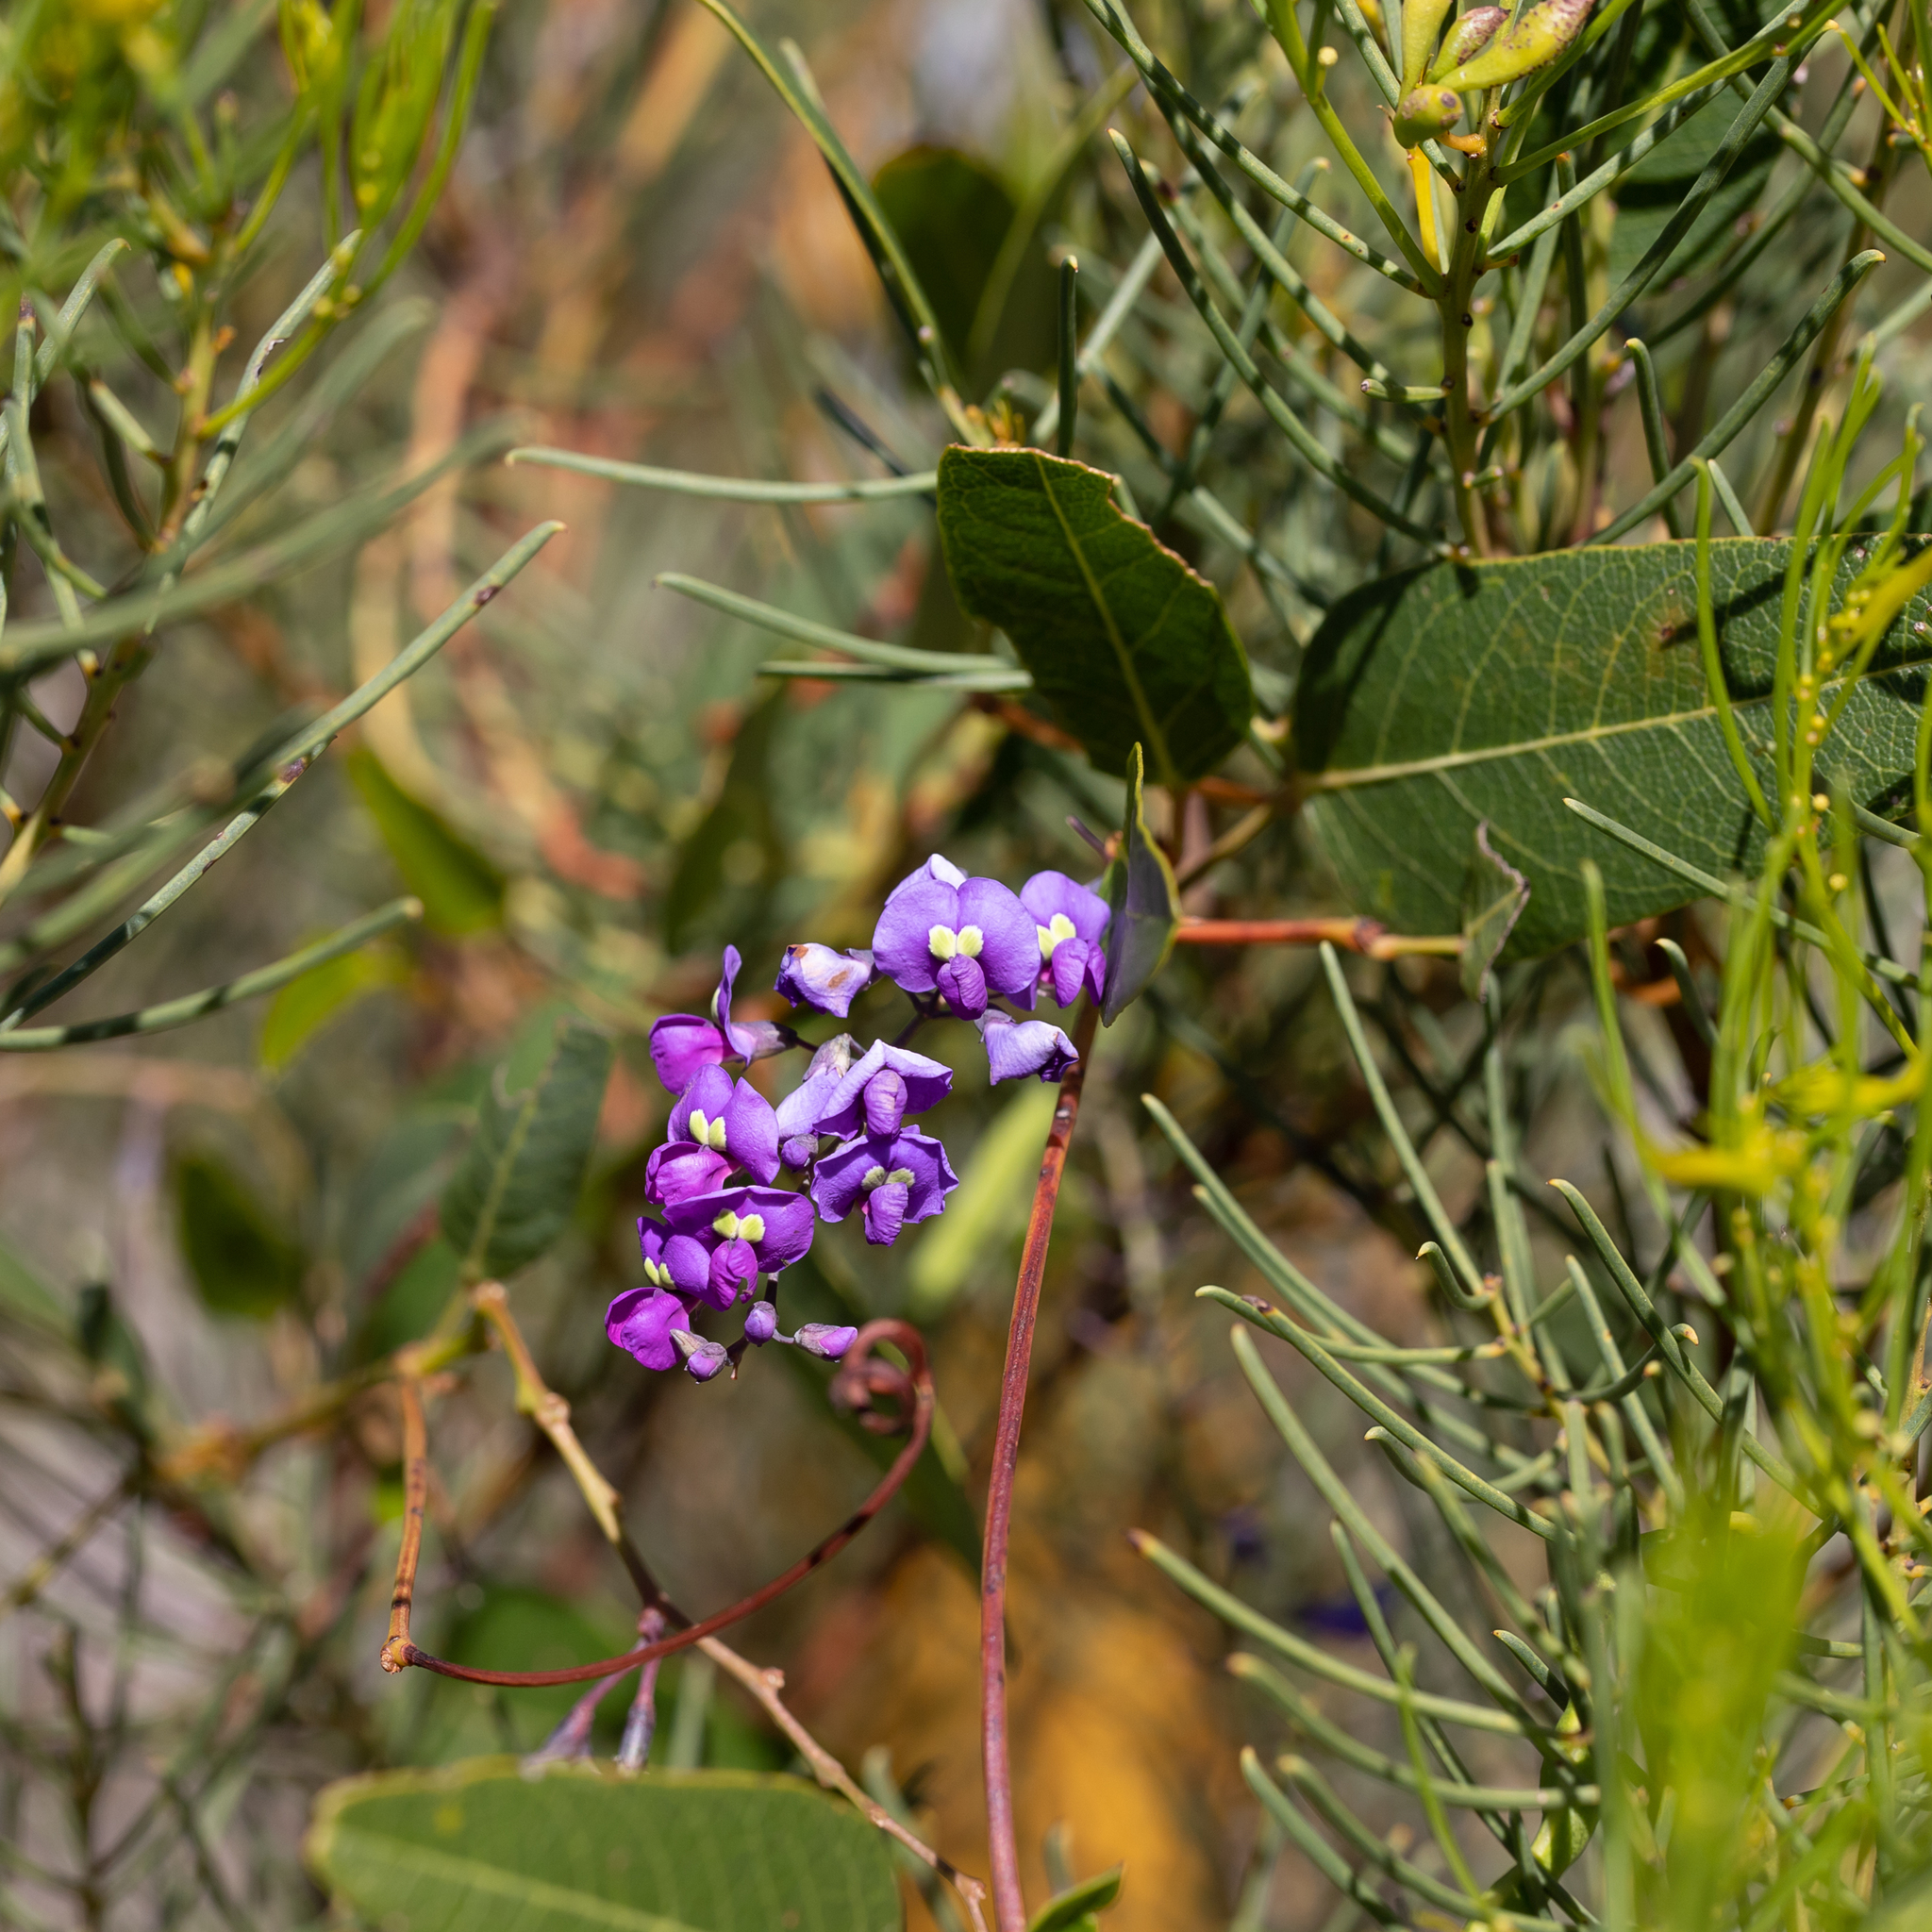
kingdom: Plantae
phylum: Tracheophyta
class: Magnoliopsida
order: Fabales
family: Fabaceae
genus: Hardenbergia
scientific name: Hardenbergia violacea
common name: Coral-pea
